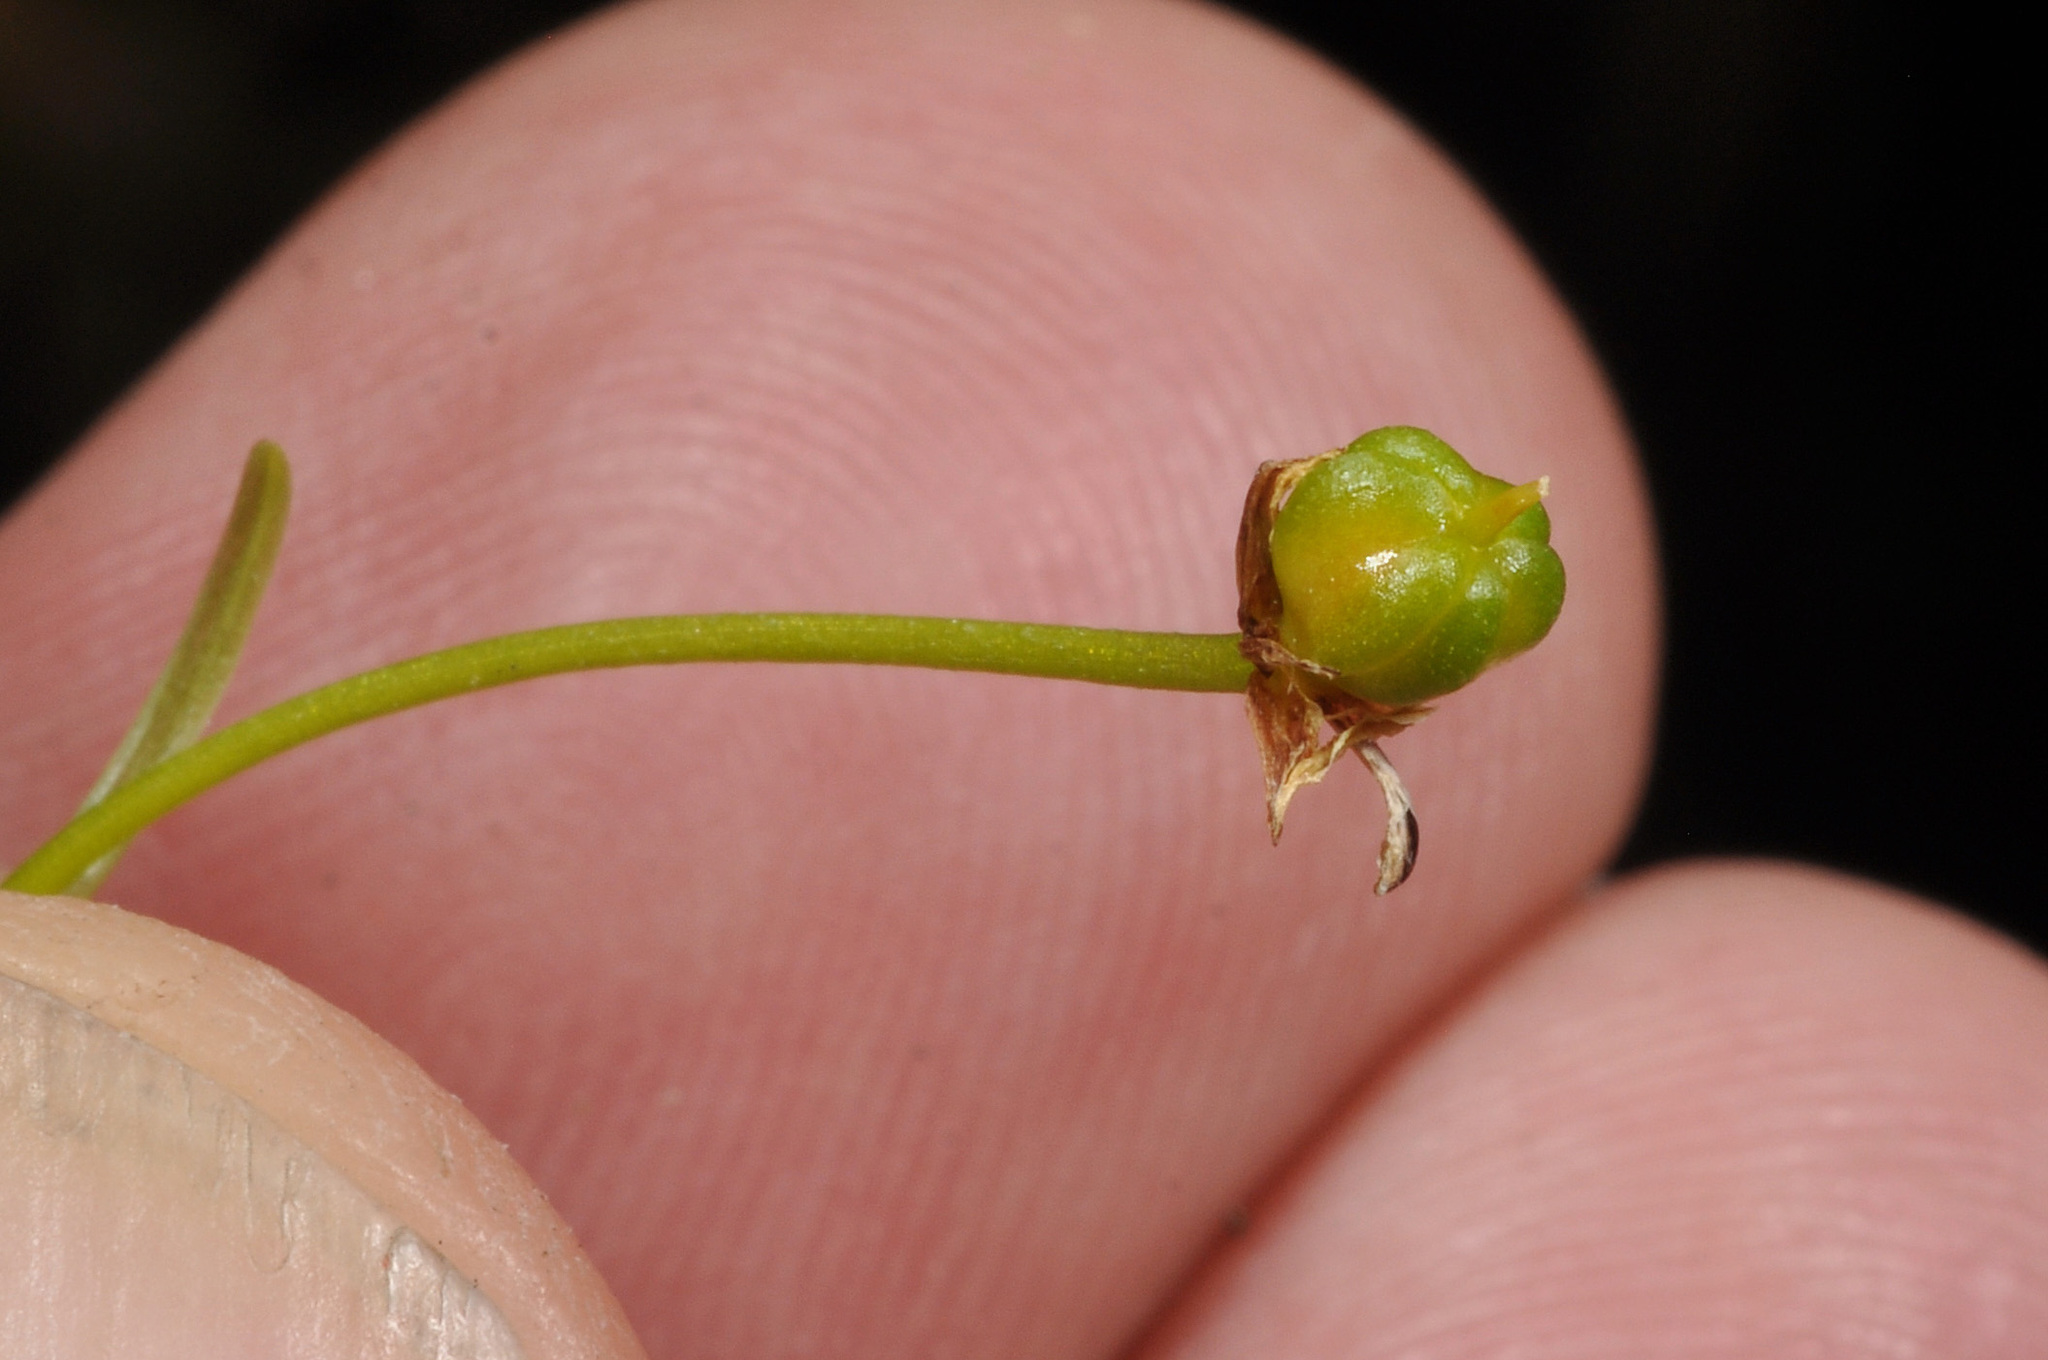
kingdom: Plantae
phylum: Tracheophyta
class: Liliopsida
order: Asparagales
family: Asphodelaceae
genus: Bulbinella
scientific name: Bulbinella modesta
